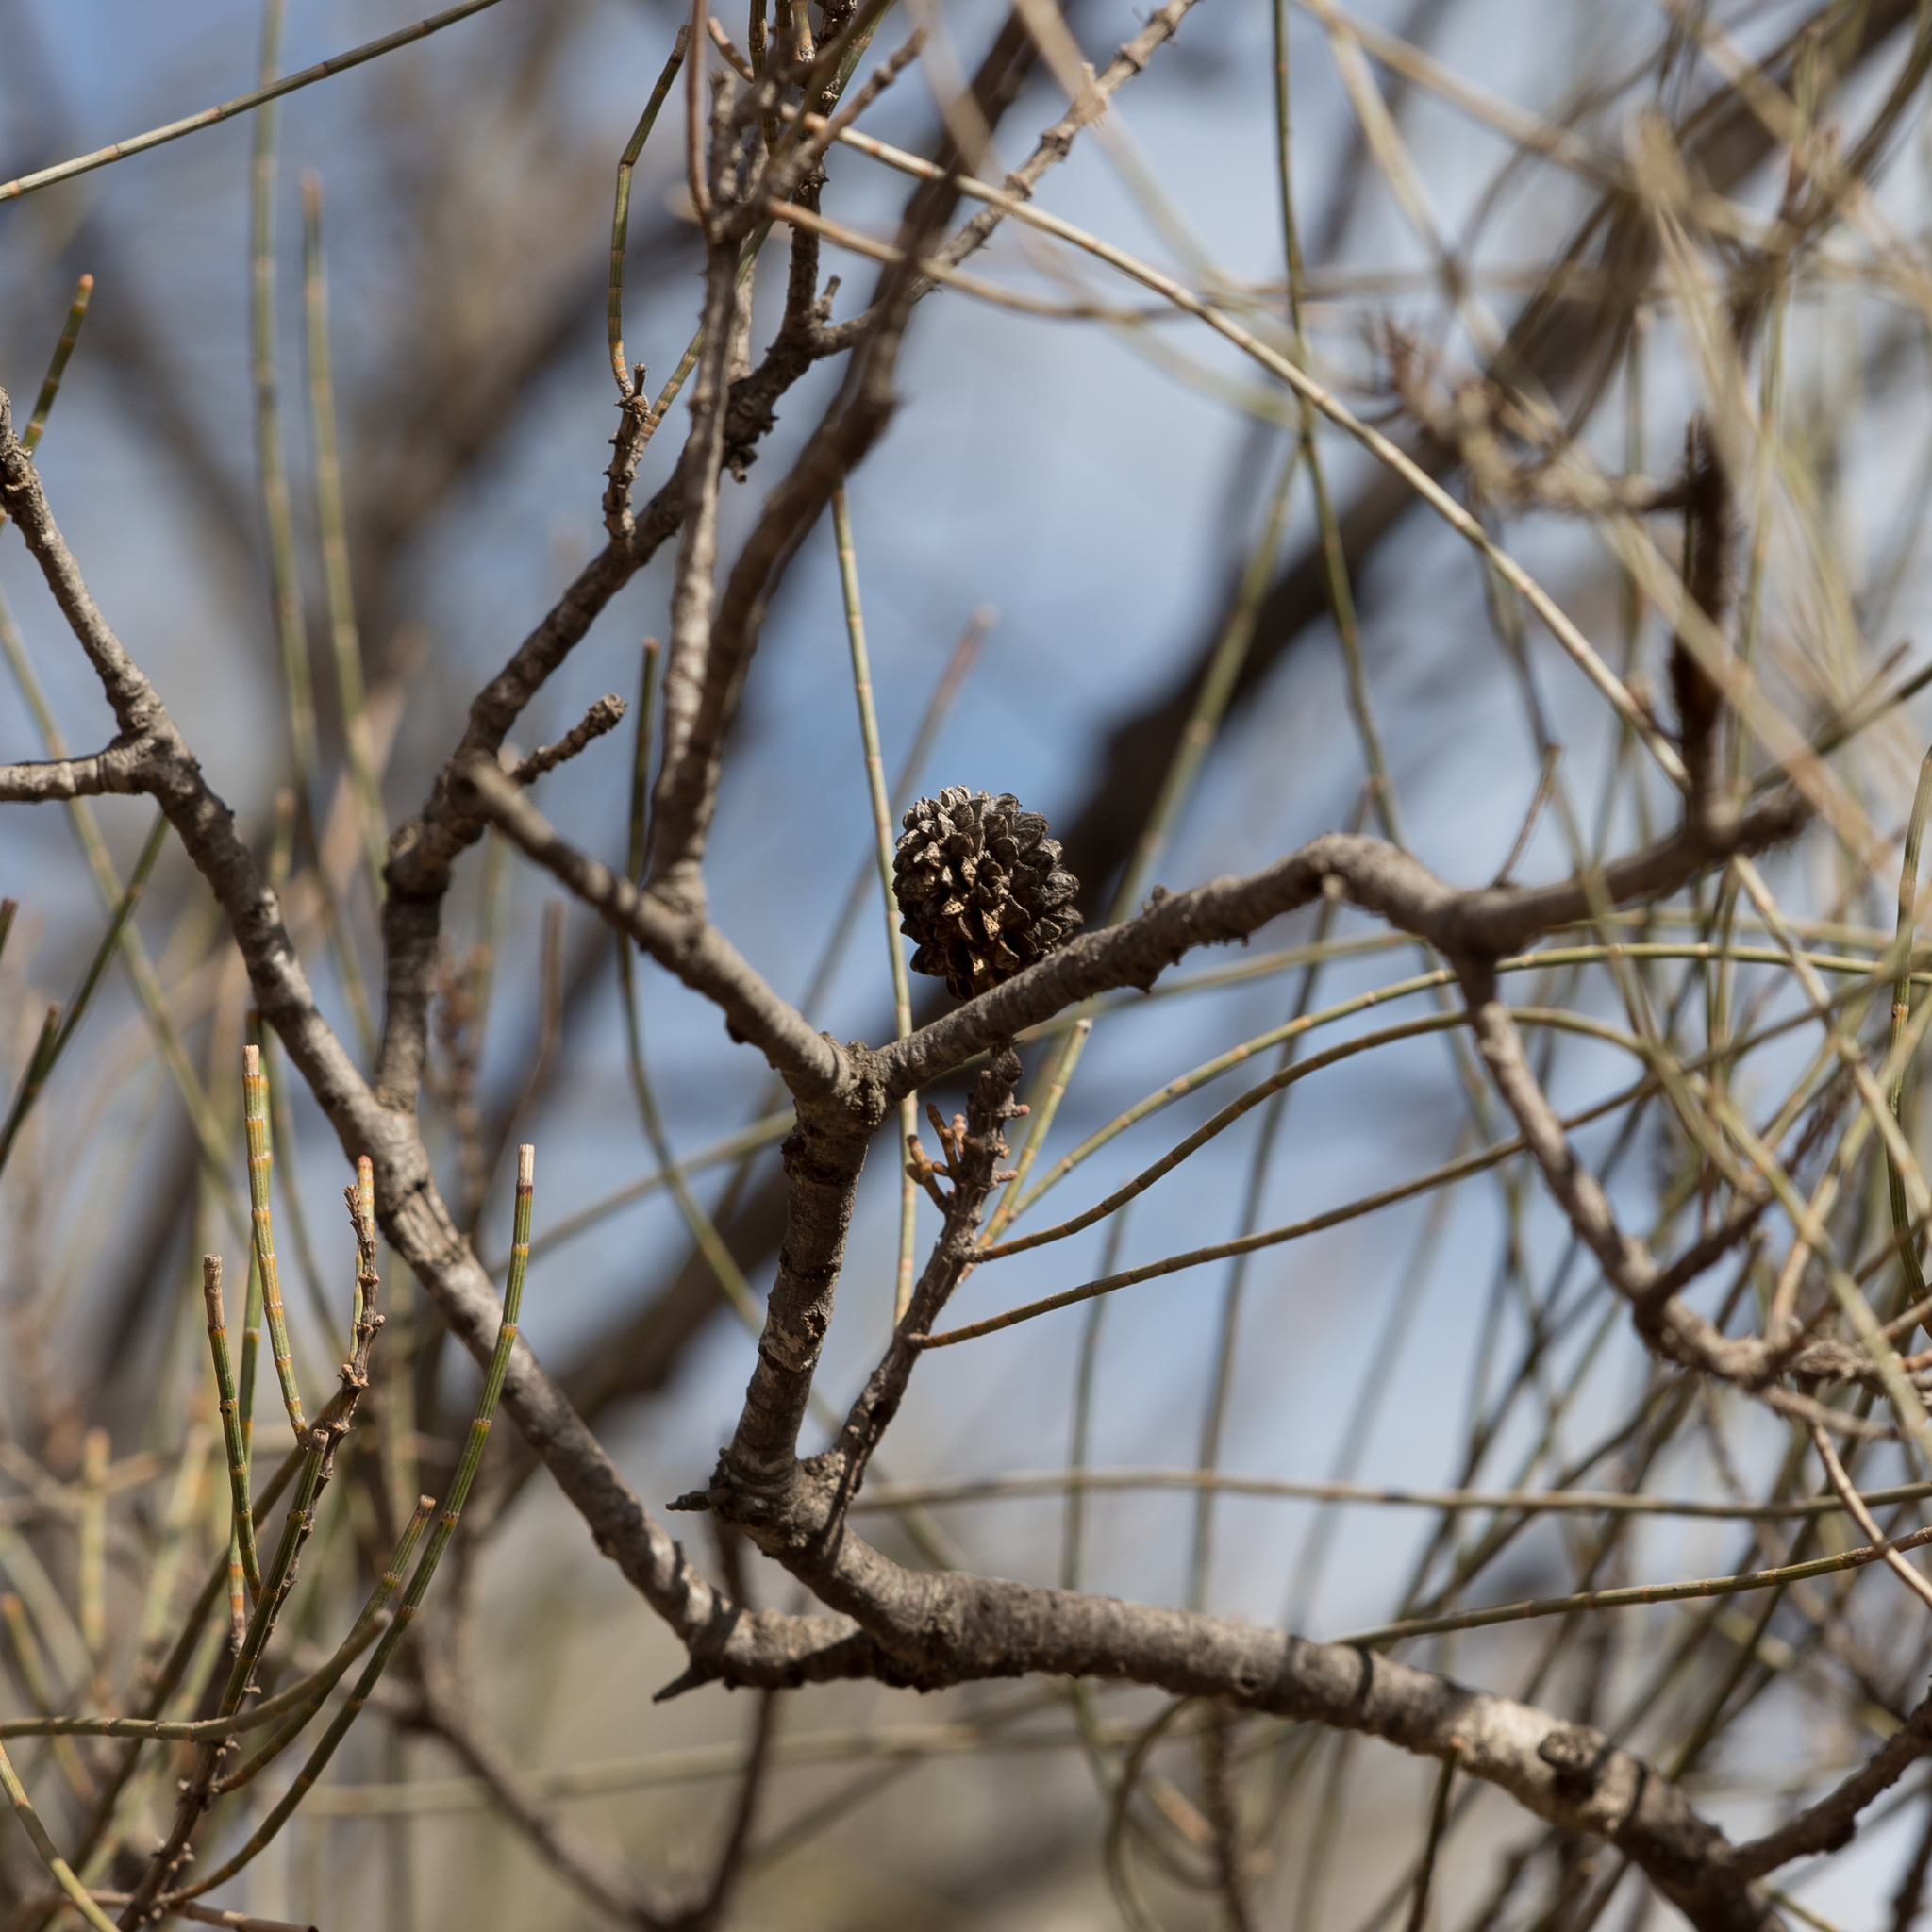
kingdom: Plantae
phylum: Tracheophyta
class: Magnoliopsida
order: Fagales
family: Casuarinaceae
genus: Casuarina
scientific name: Casuarina pauper
